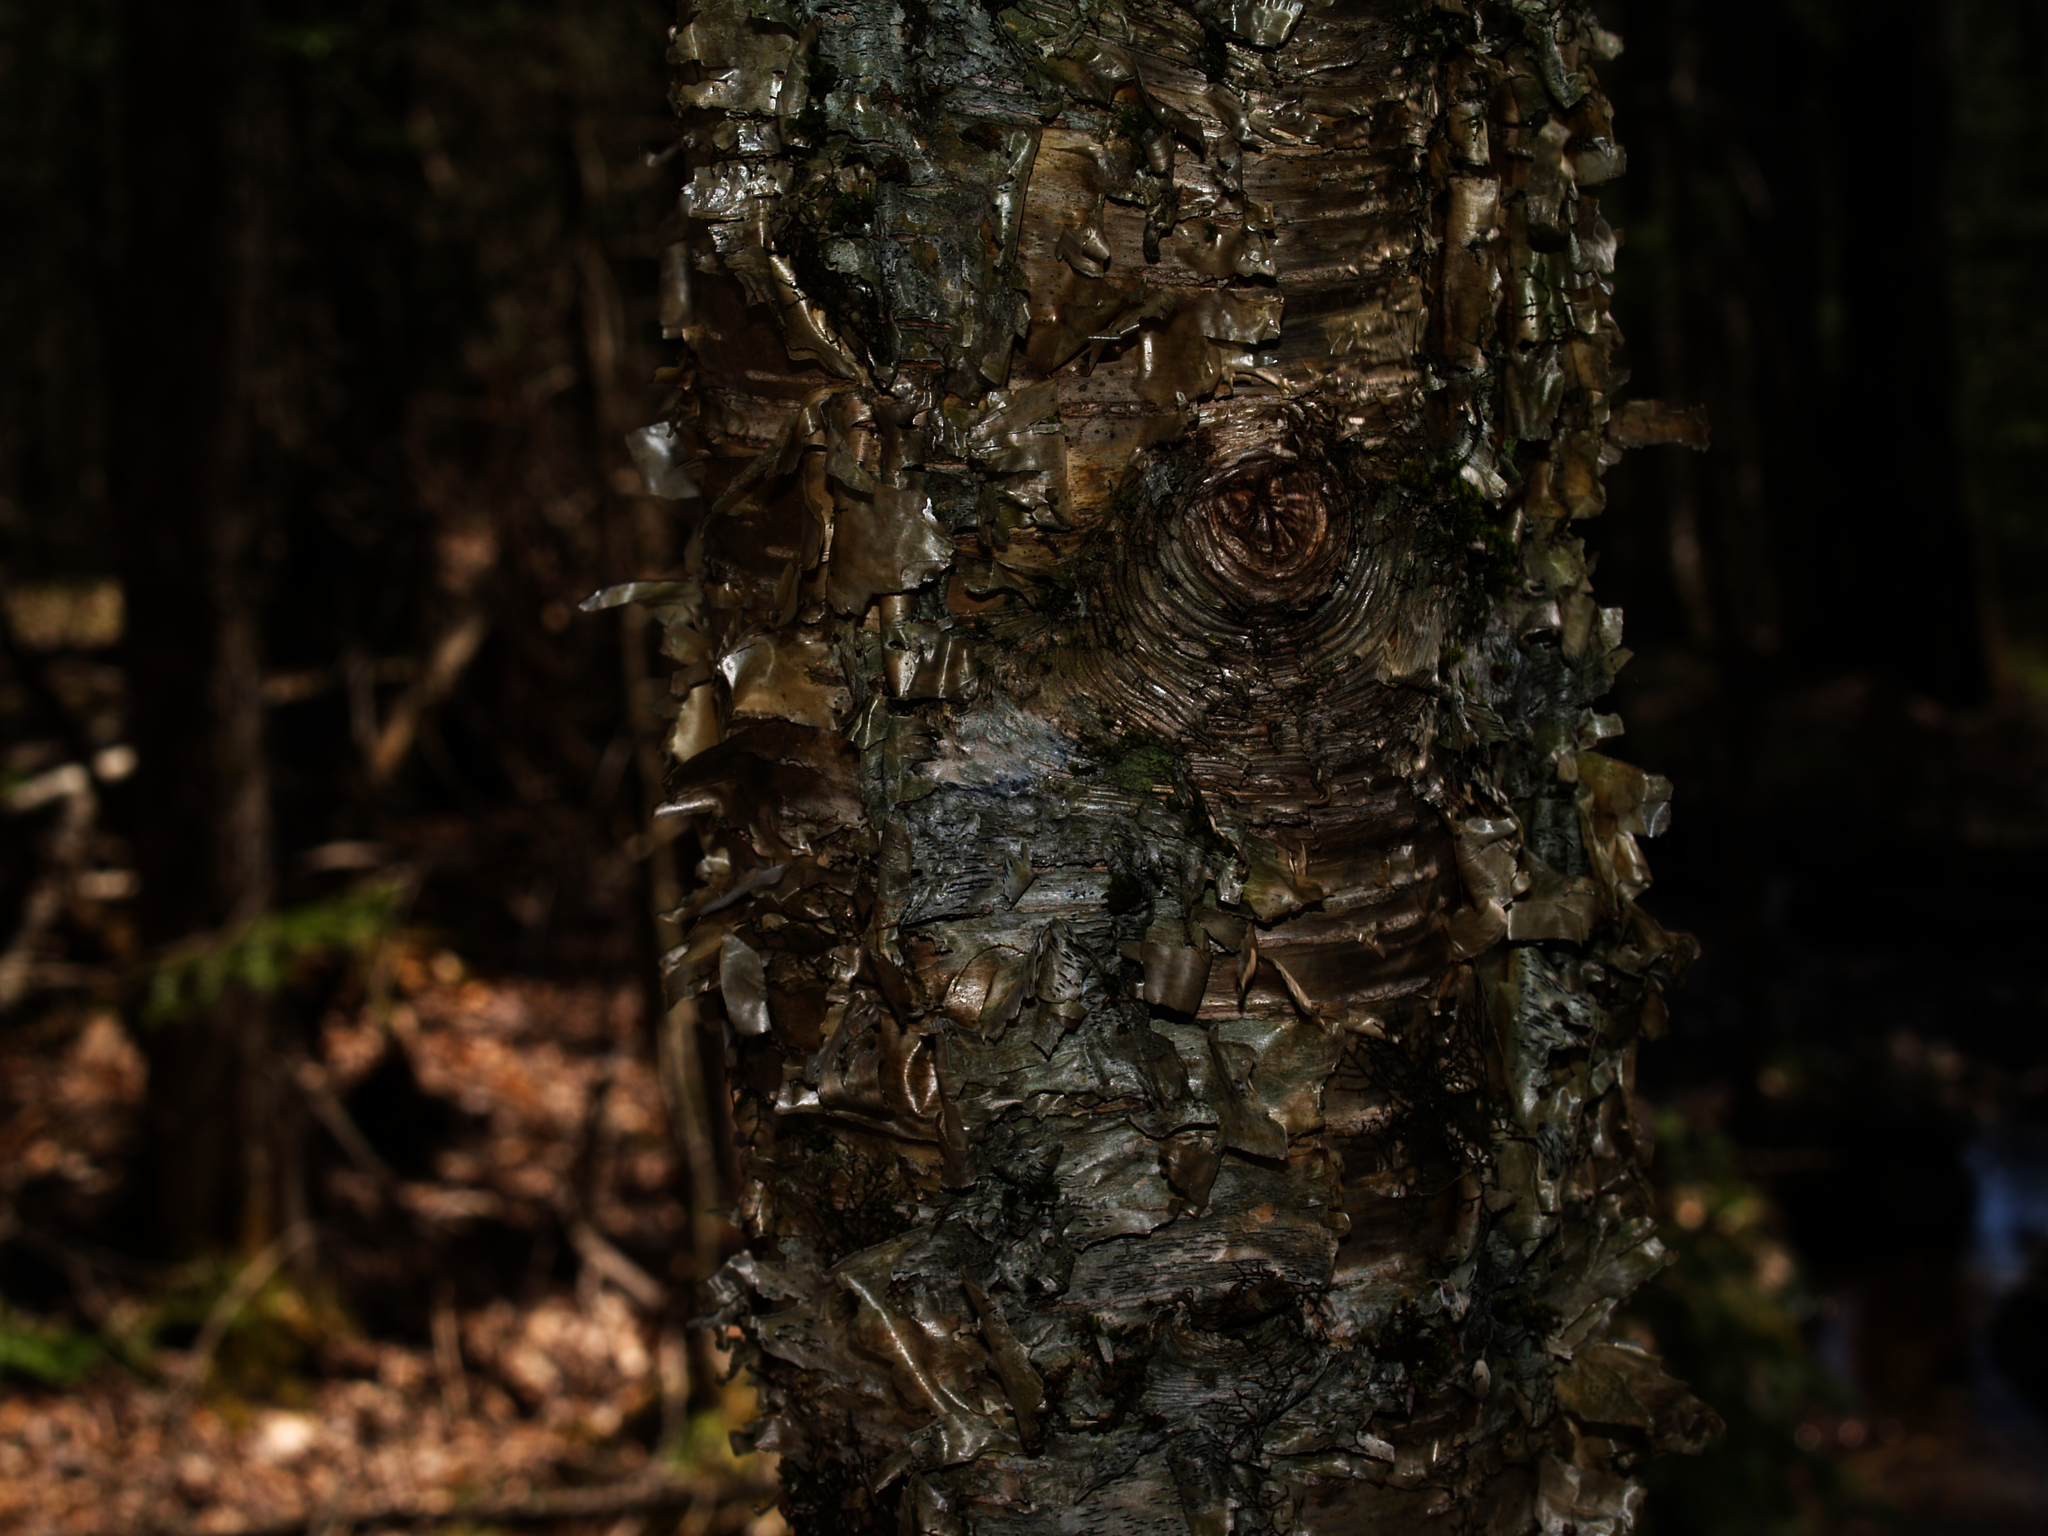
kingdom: Plantae
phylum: Tracheophyta
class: Magnoliopsida
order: Fagales
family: Betulaceae
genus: Betula
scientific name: Betula alleghaniensis
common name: Yellow birch
